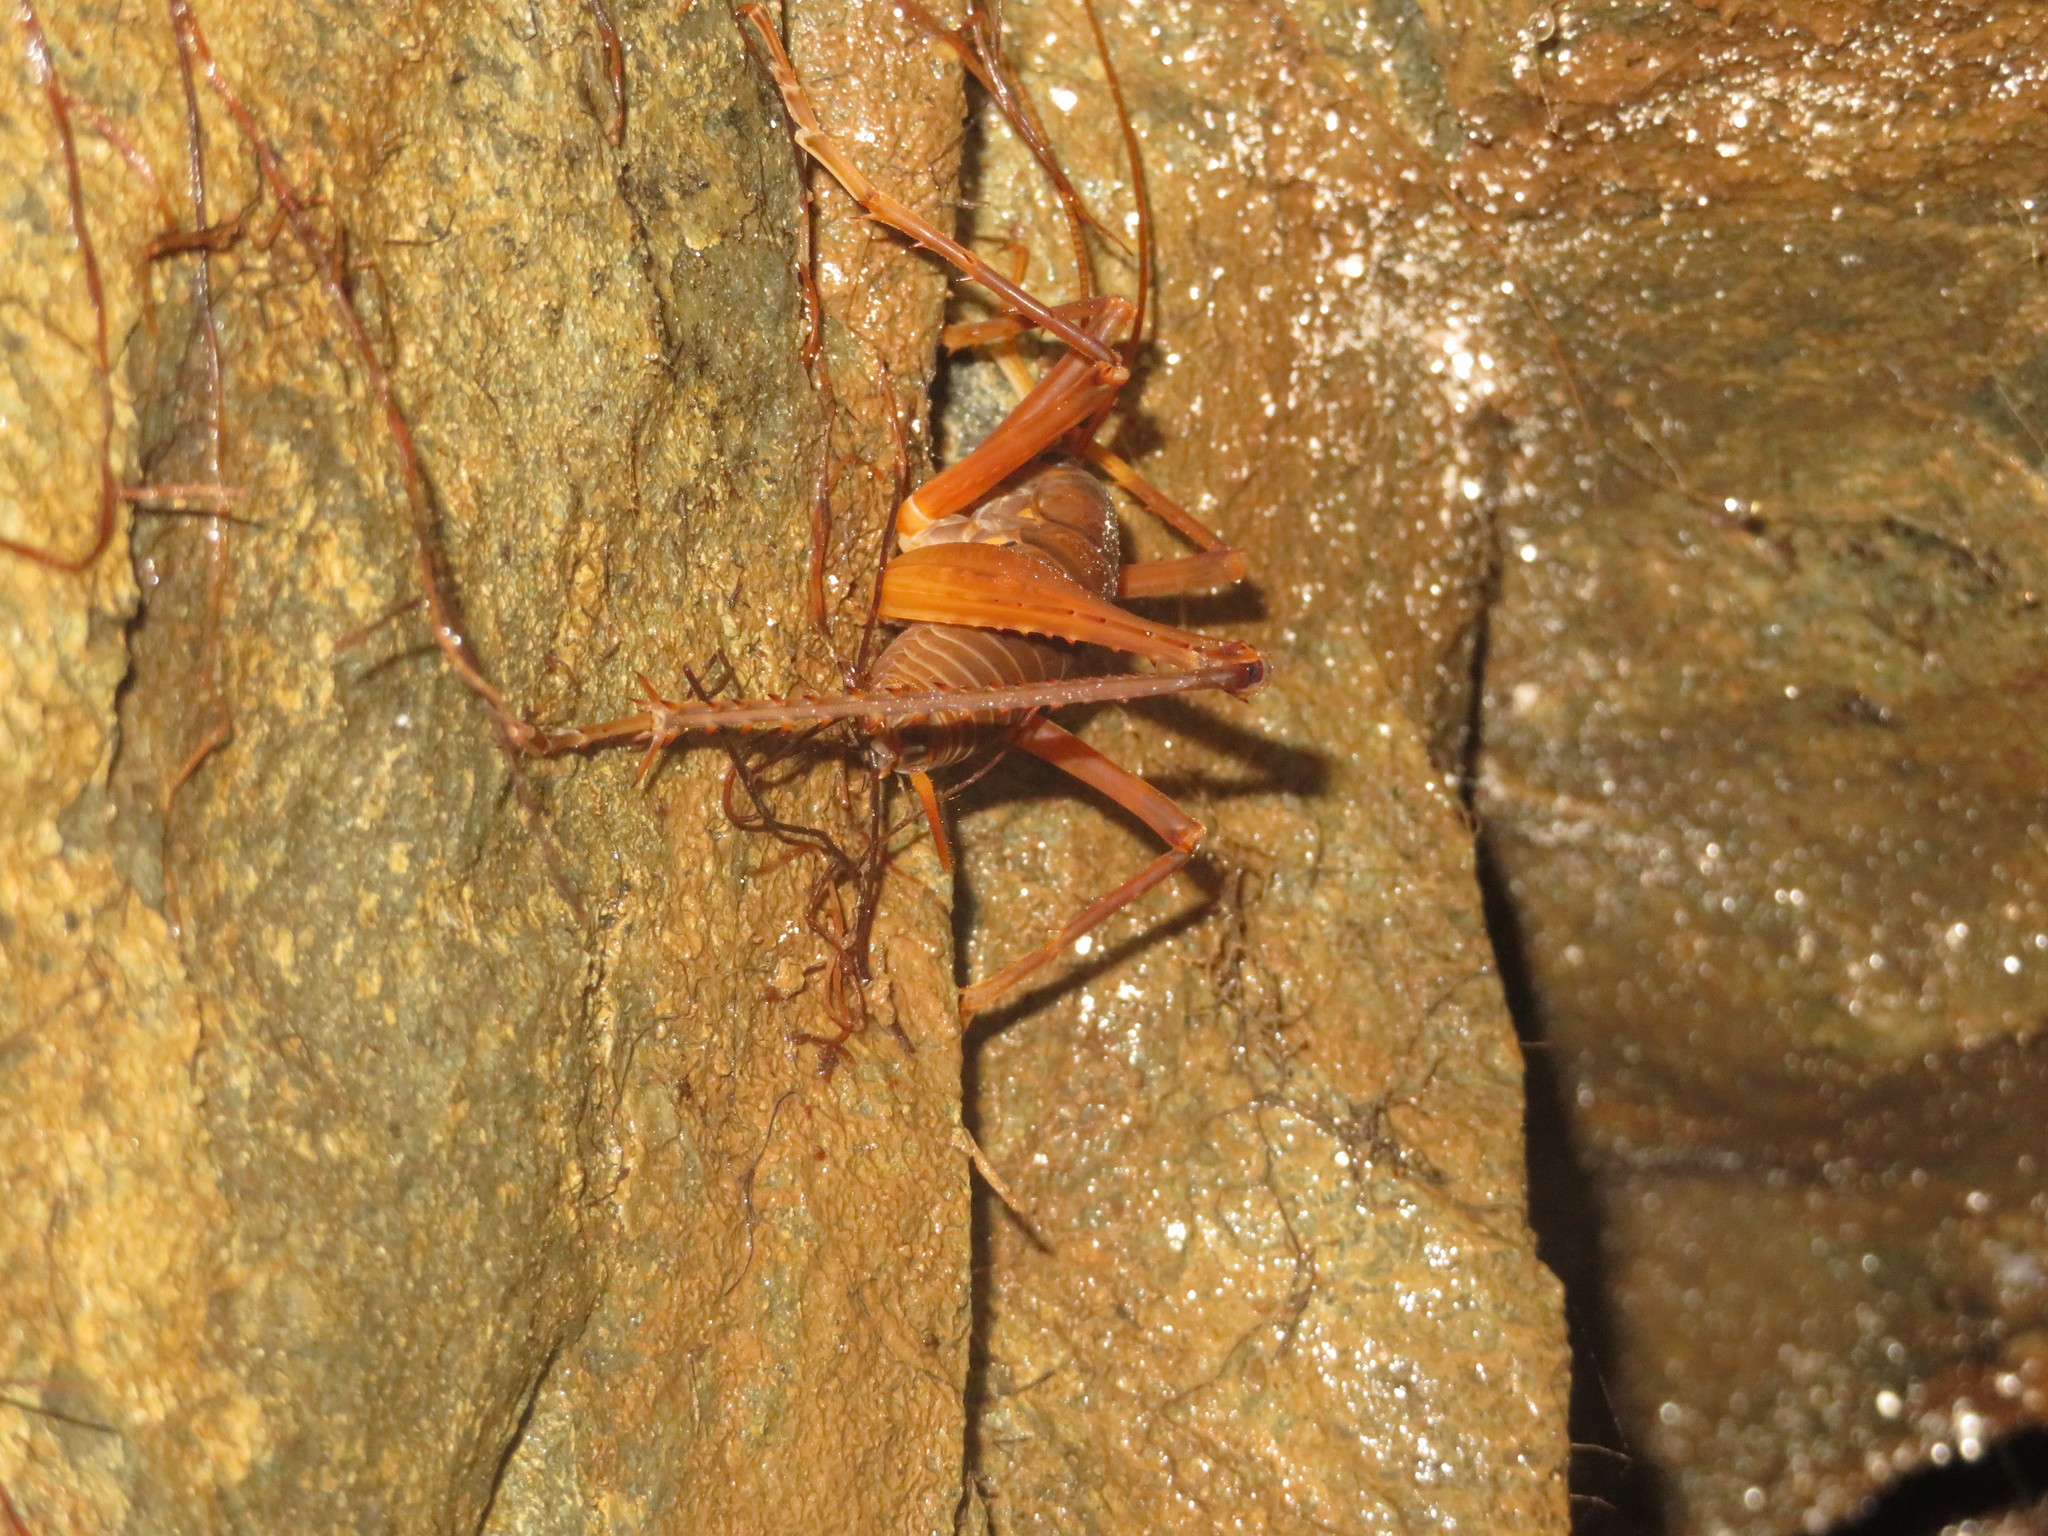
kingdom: Animalia
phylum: Arthropoda
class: Insecta
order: Orthoptera
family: Rhaphidophoridae
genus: Pachyrhamma
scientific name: Pachyrhamma delli
